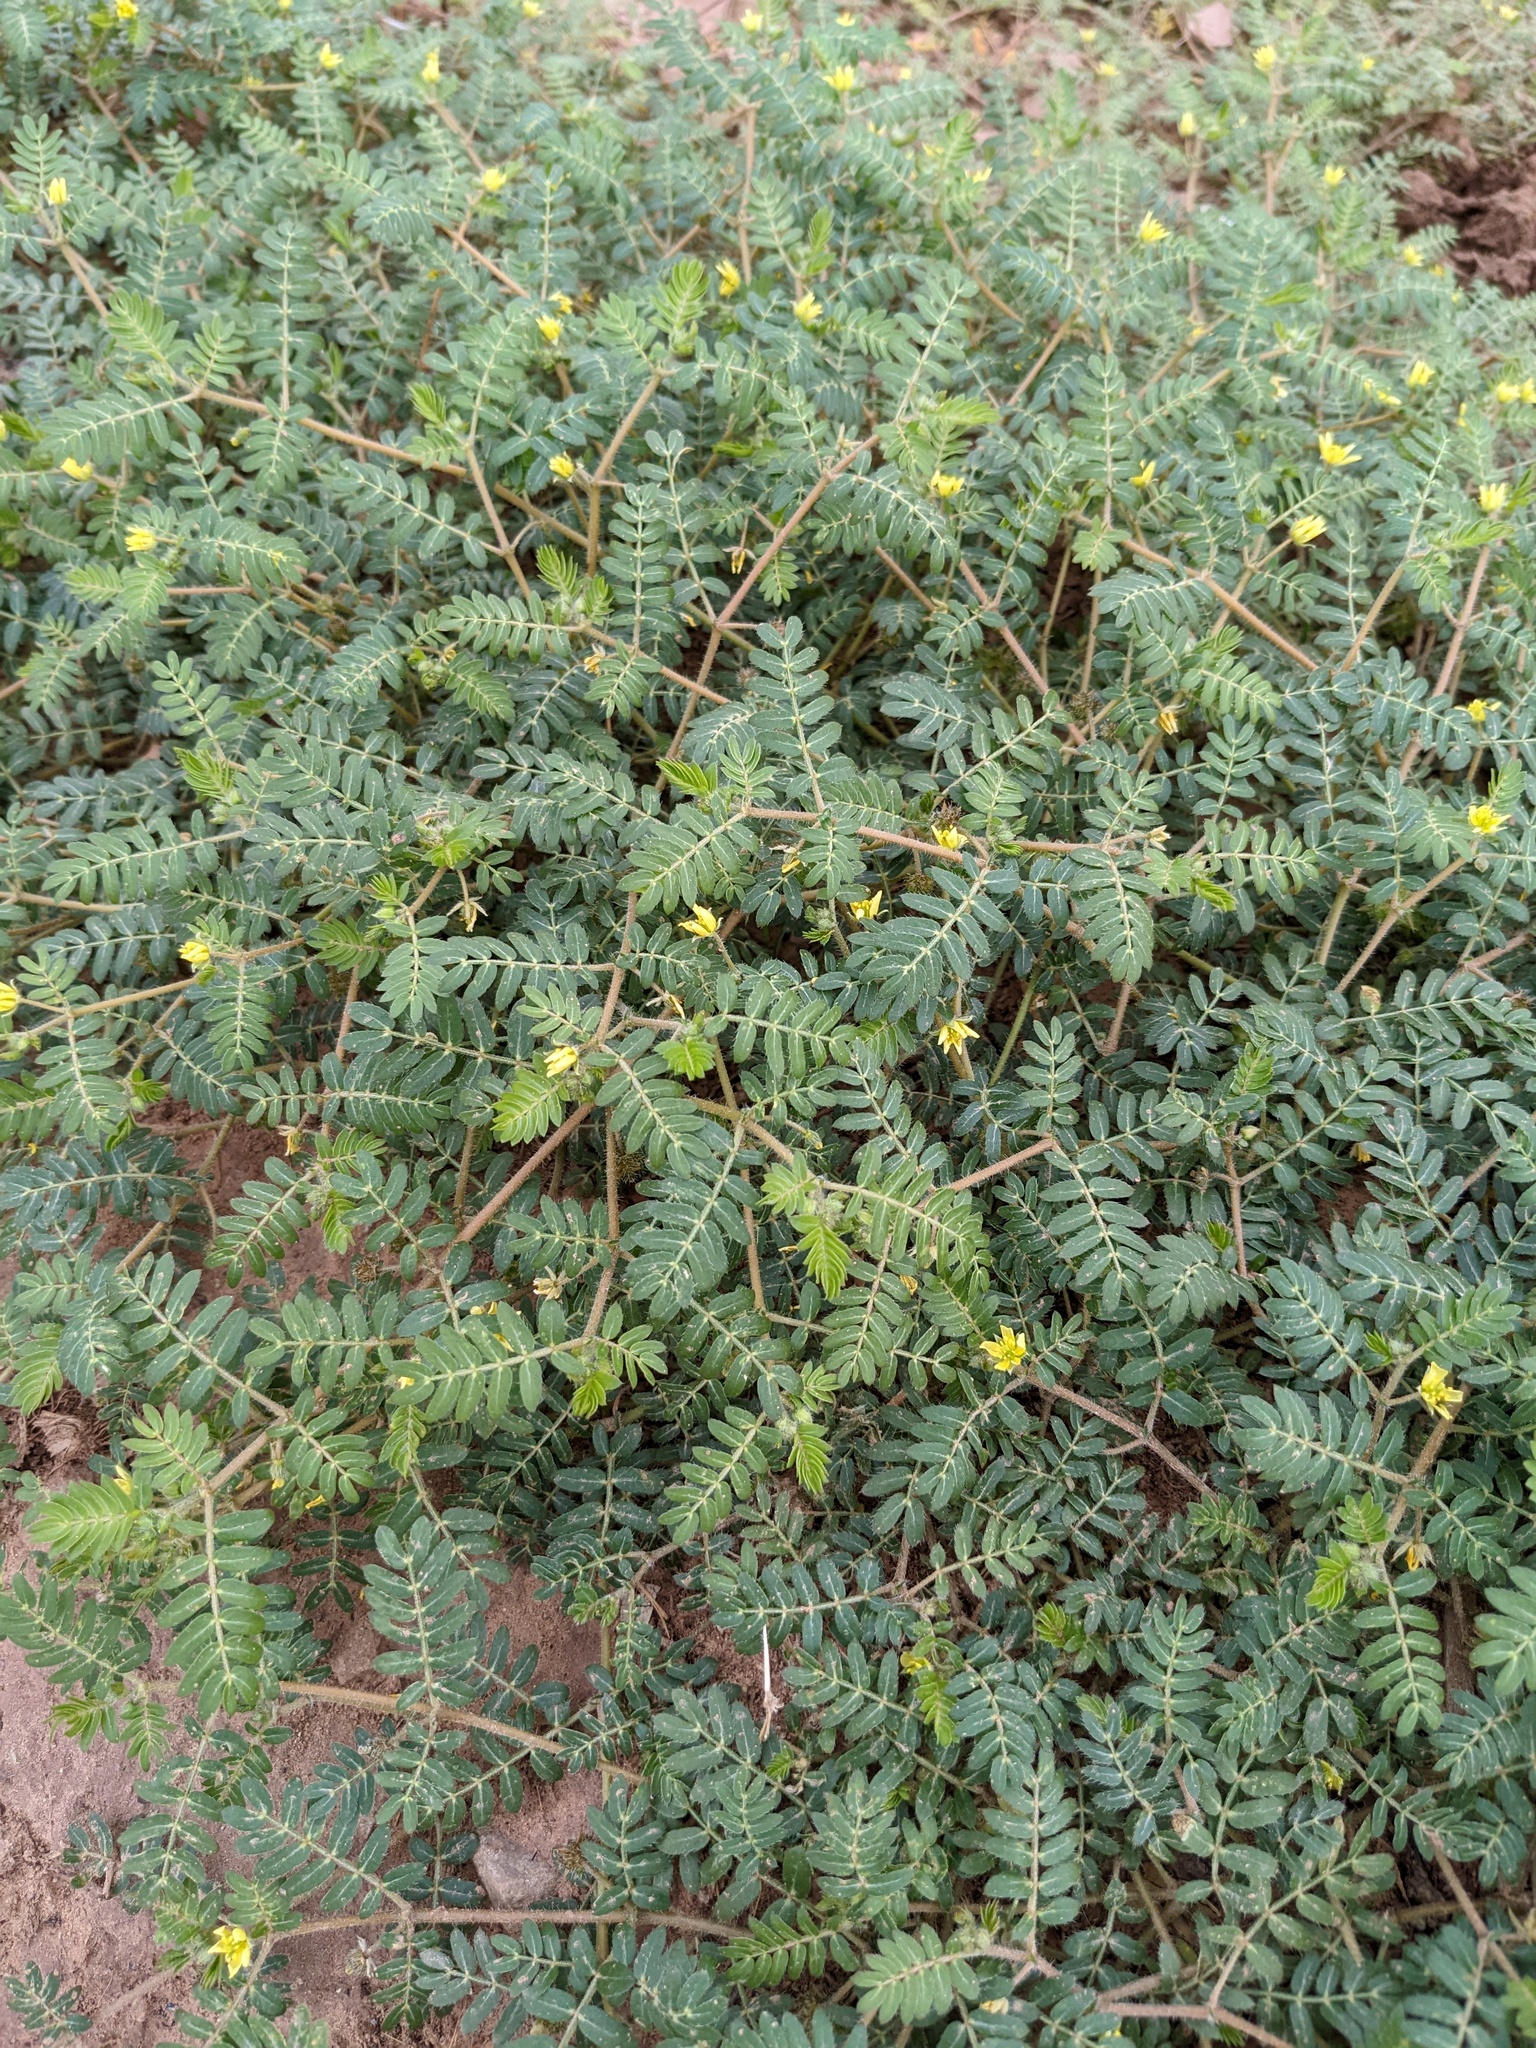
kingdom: Plantae
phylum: Tracheophyta
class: Magnoliopsida
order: Zygophyllales
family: Zygophyllaceae
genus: Tribulus
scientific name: Tribulus terrestris
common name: Puncturevine
